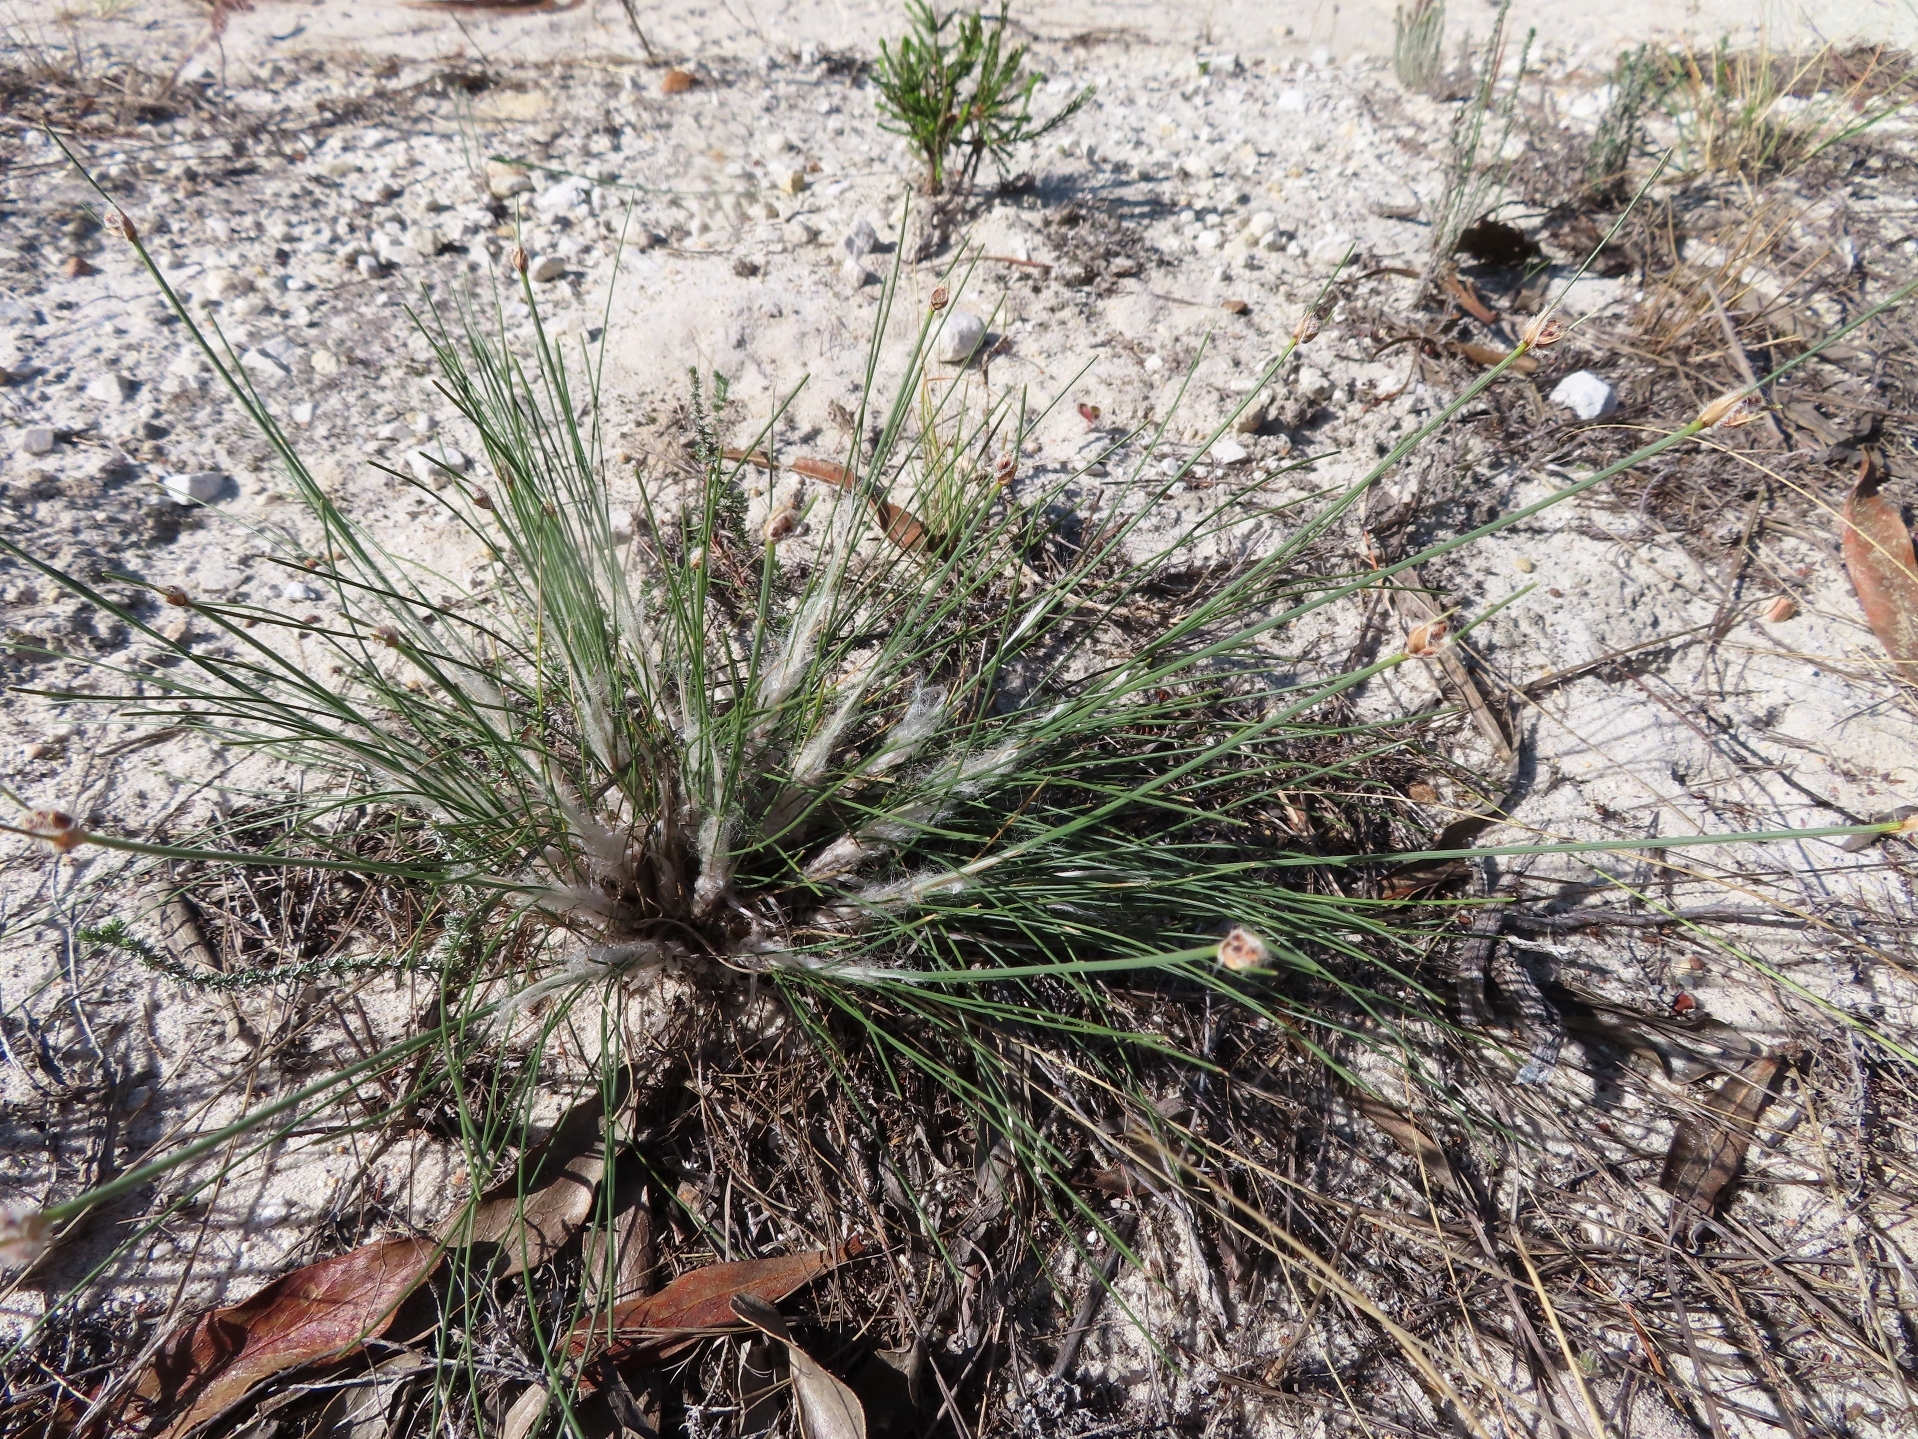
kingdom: Plantae
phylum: Tracheophyta
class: Liliopsida
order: Poales
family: Cyperaceae
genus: Ficinia
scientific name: Ficinia paradoxa
